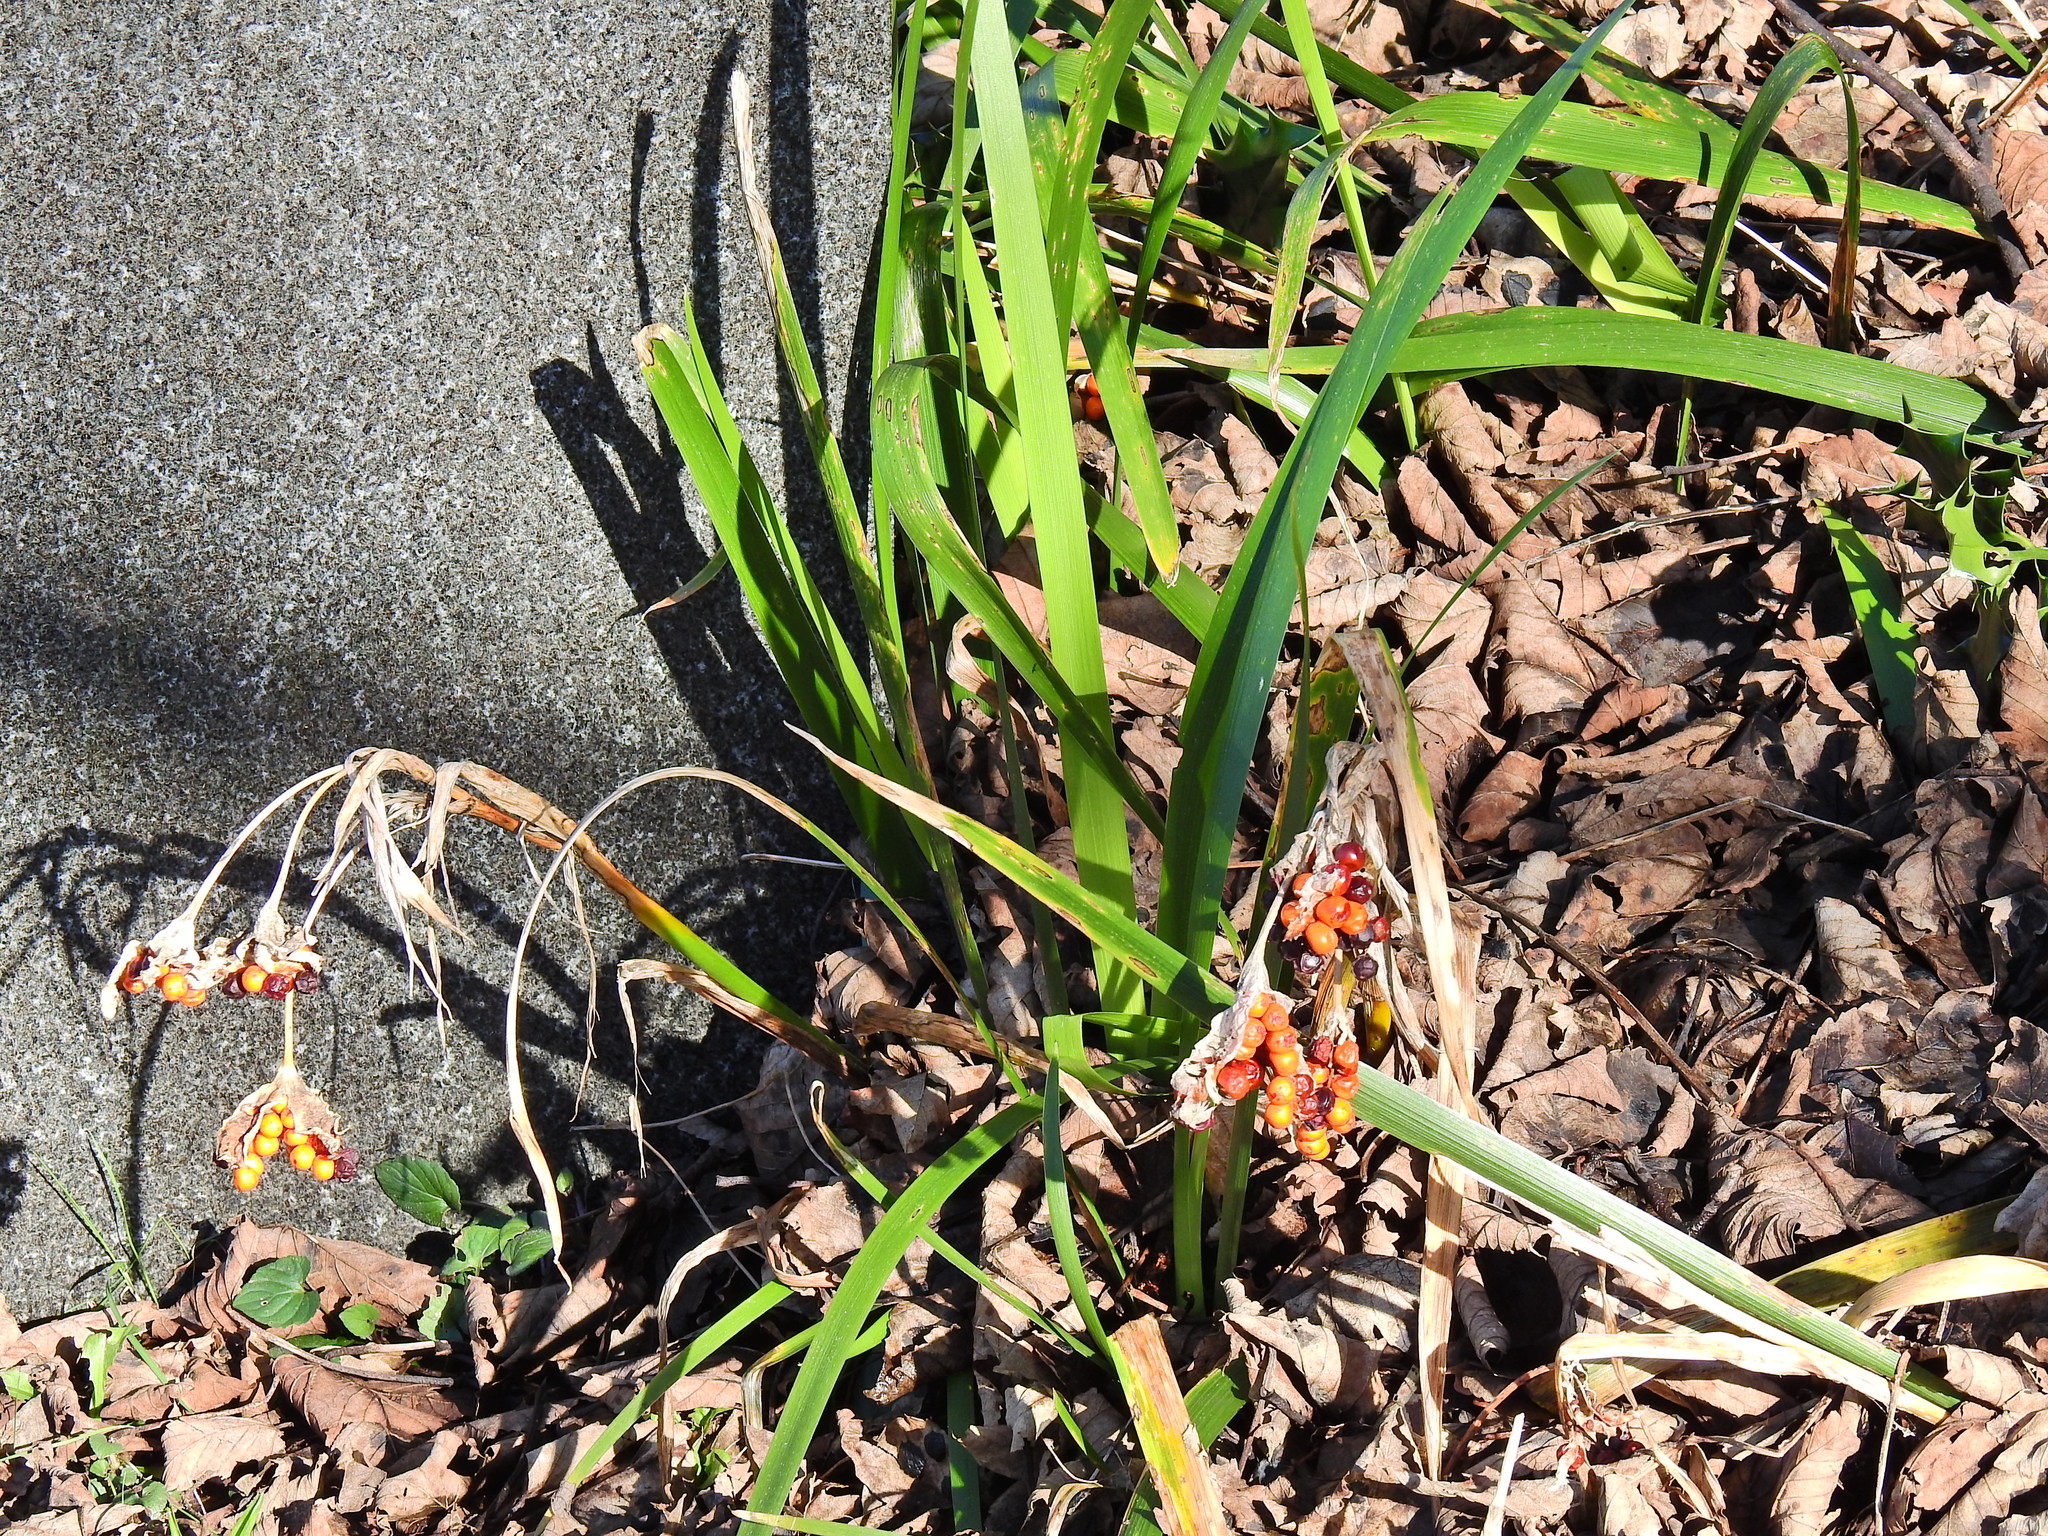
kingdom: Plantae
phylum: Tracheophyta
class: Liliopsida
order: Asparagales
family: Iridaceae
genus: Iris
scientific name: Iris foetidissima
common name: Stinking iris
